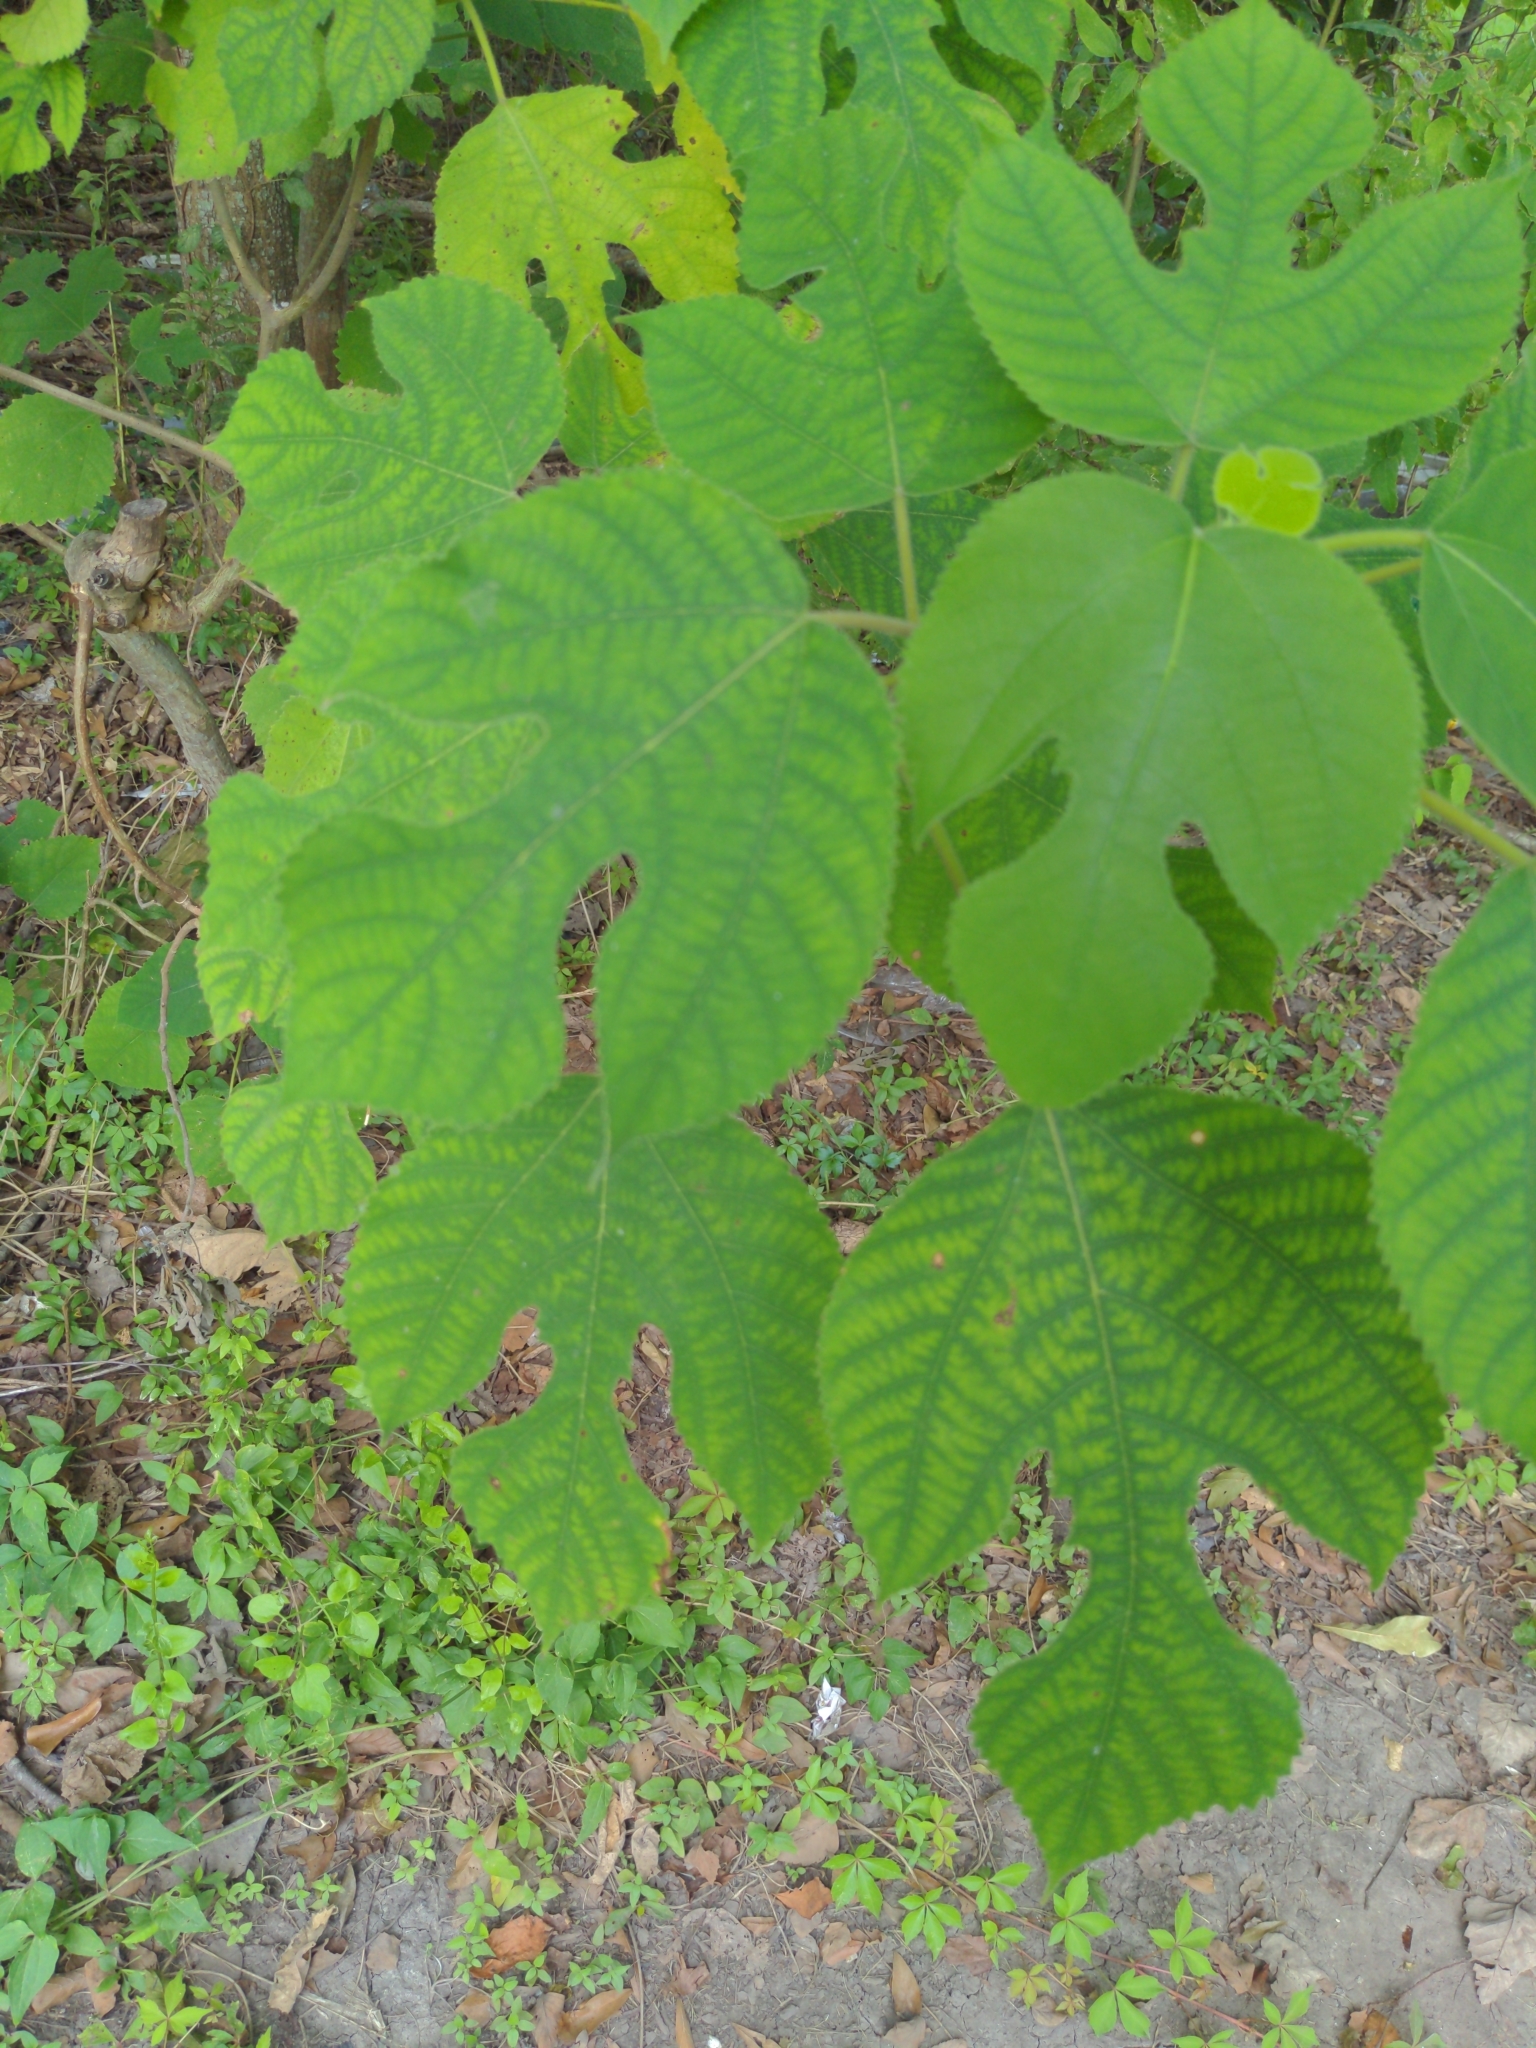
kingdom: Plantae
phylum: Tracheophyta
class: Magnoliopsida
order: Rosales
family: Moraceae
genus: Broussonetia
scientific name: Broussonetia papyrifera
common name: Paper mulberry
